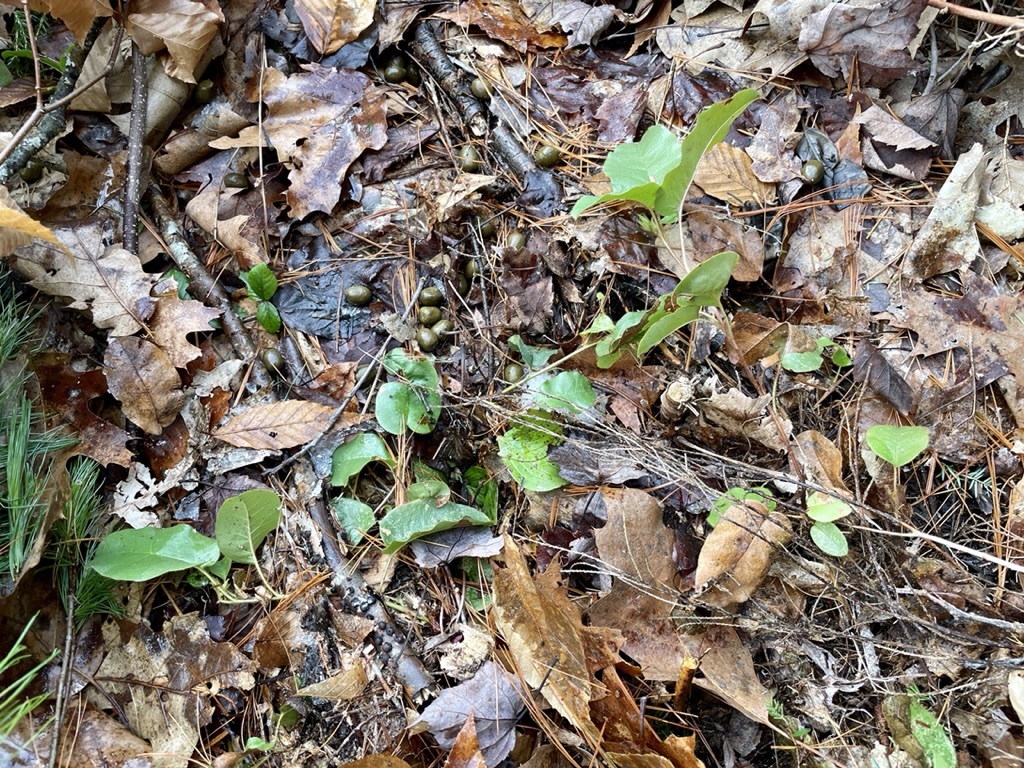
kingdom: Animalia
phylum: Chordata
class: Mammalia
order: Artiodactyla
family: Cervidae
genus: Odocoileus
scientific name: Odocoileus virginianus
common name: White-tailed deer
